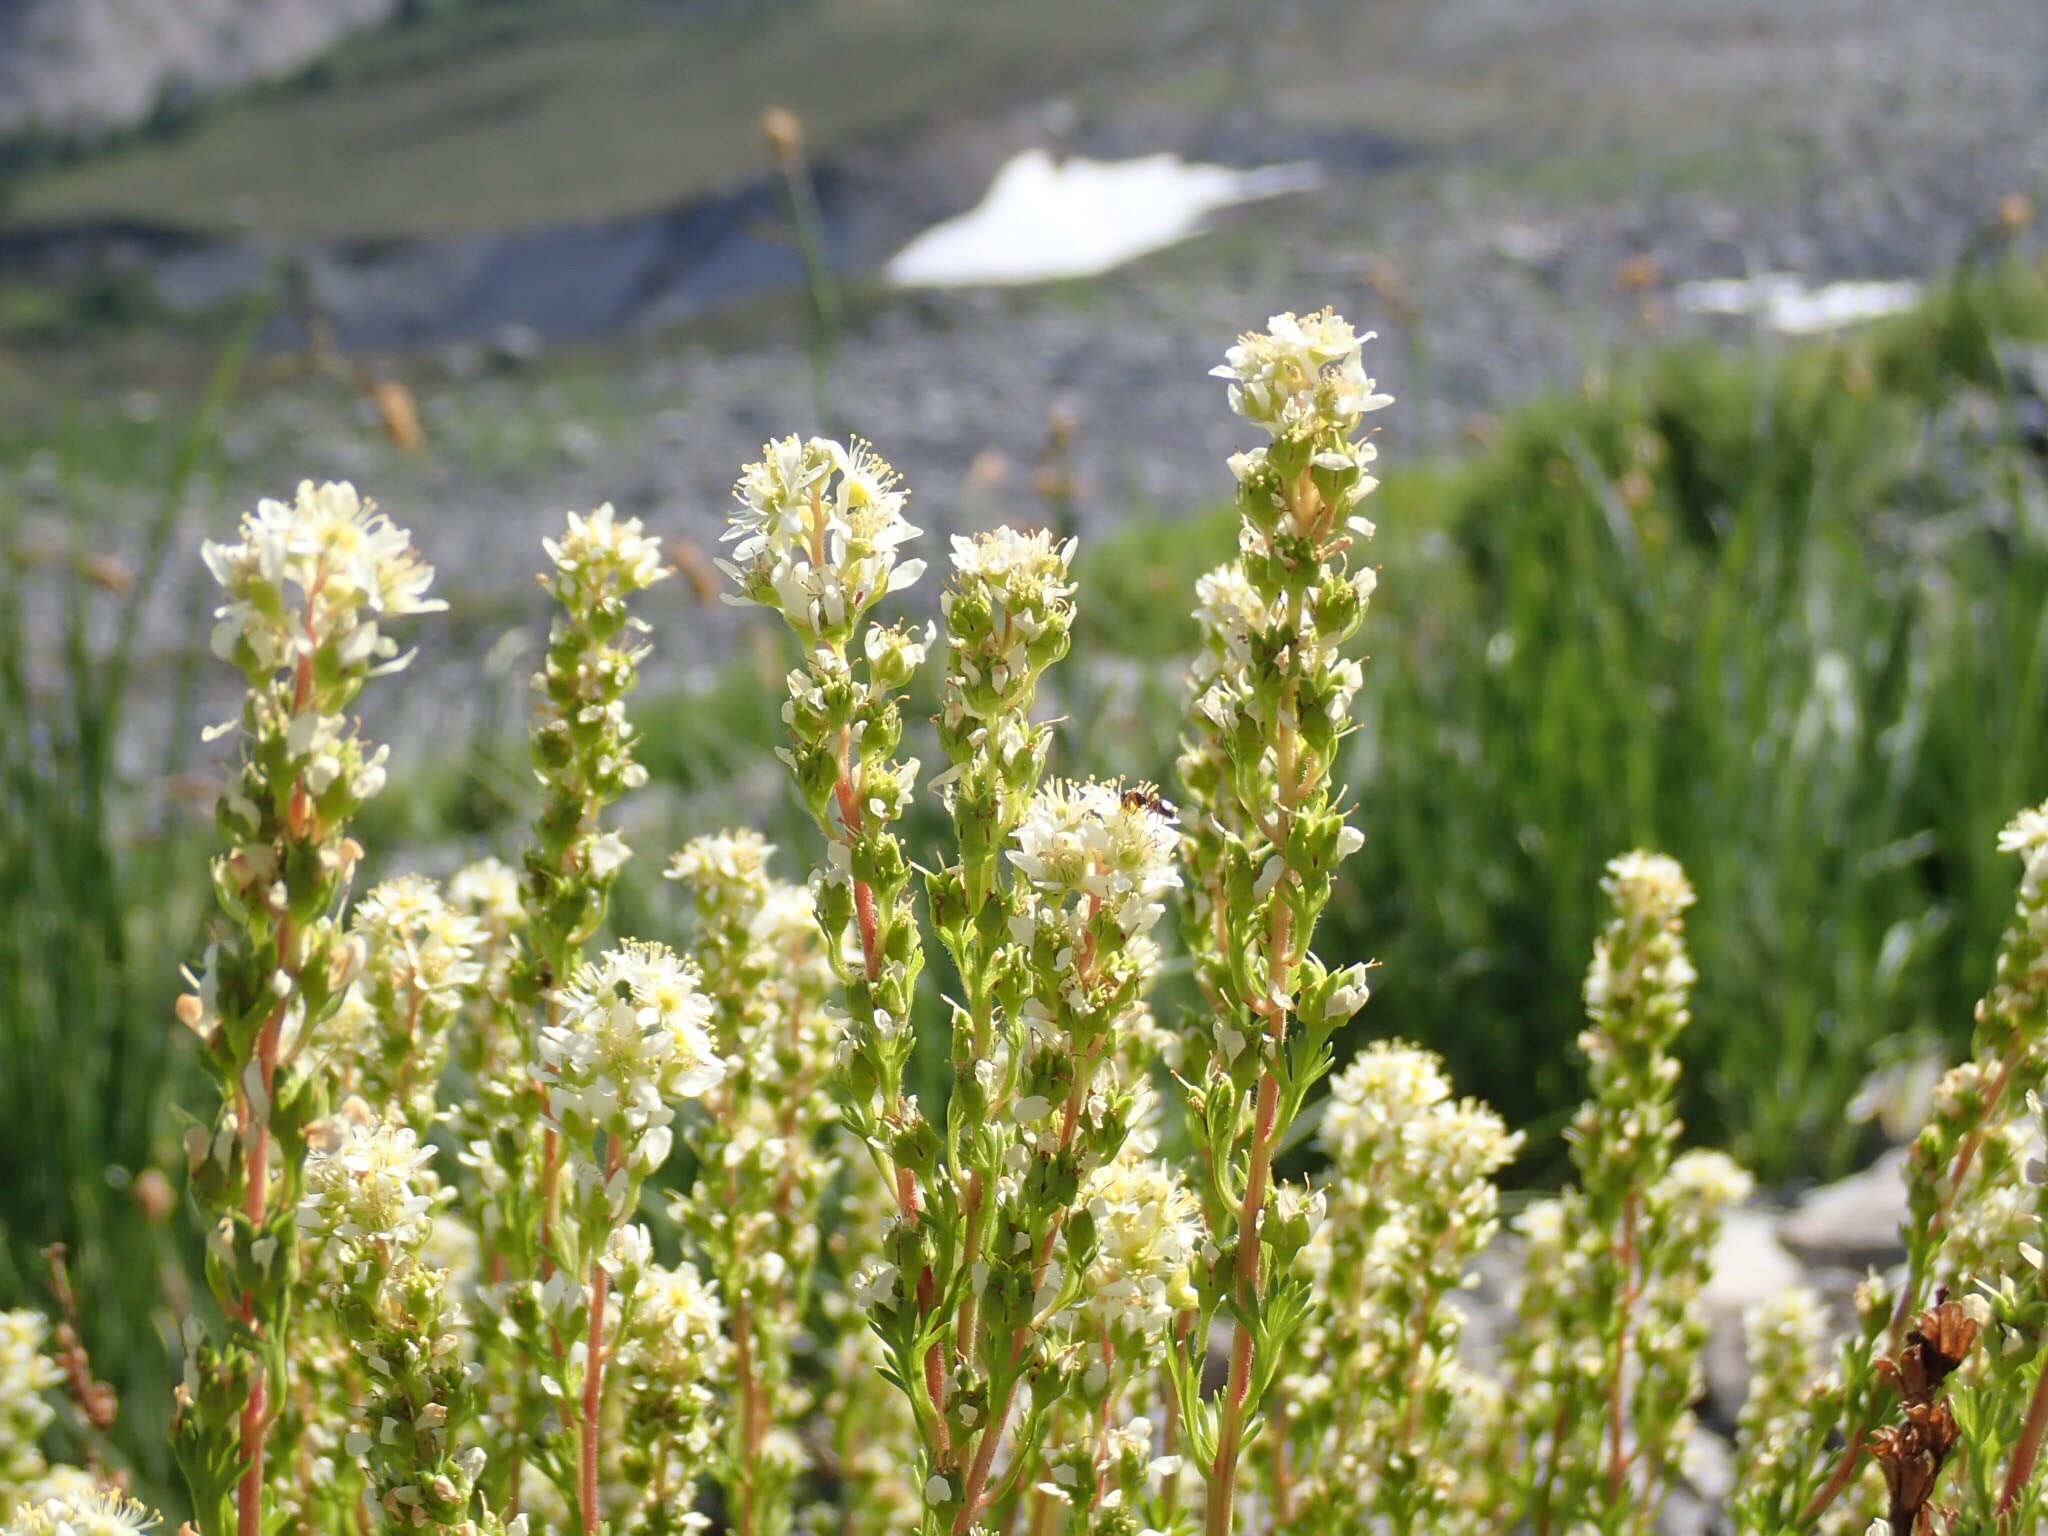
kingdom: Plantae
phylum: Tracheophyta
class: Magnoliopsida
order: Rosales
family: Rosaceae
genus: Luetkea
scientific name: Luetkea pectinata
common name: Partridgefoot
